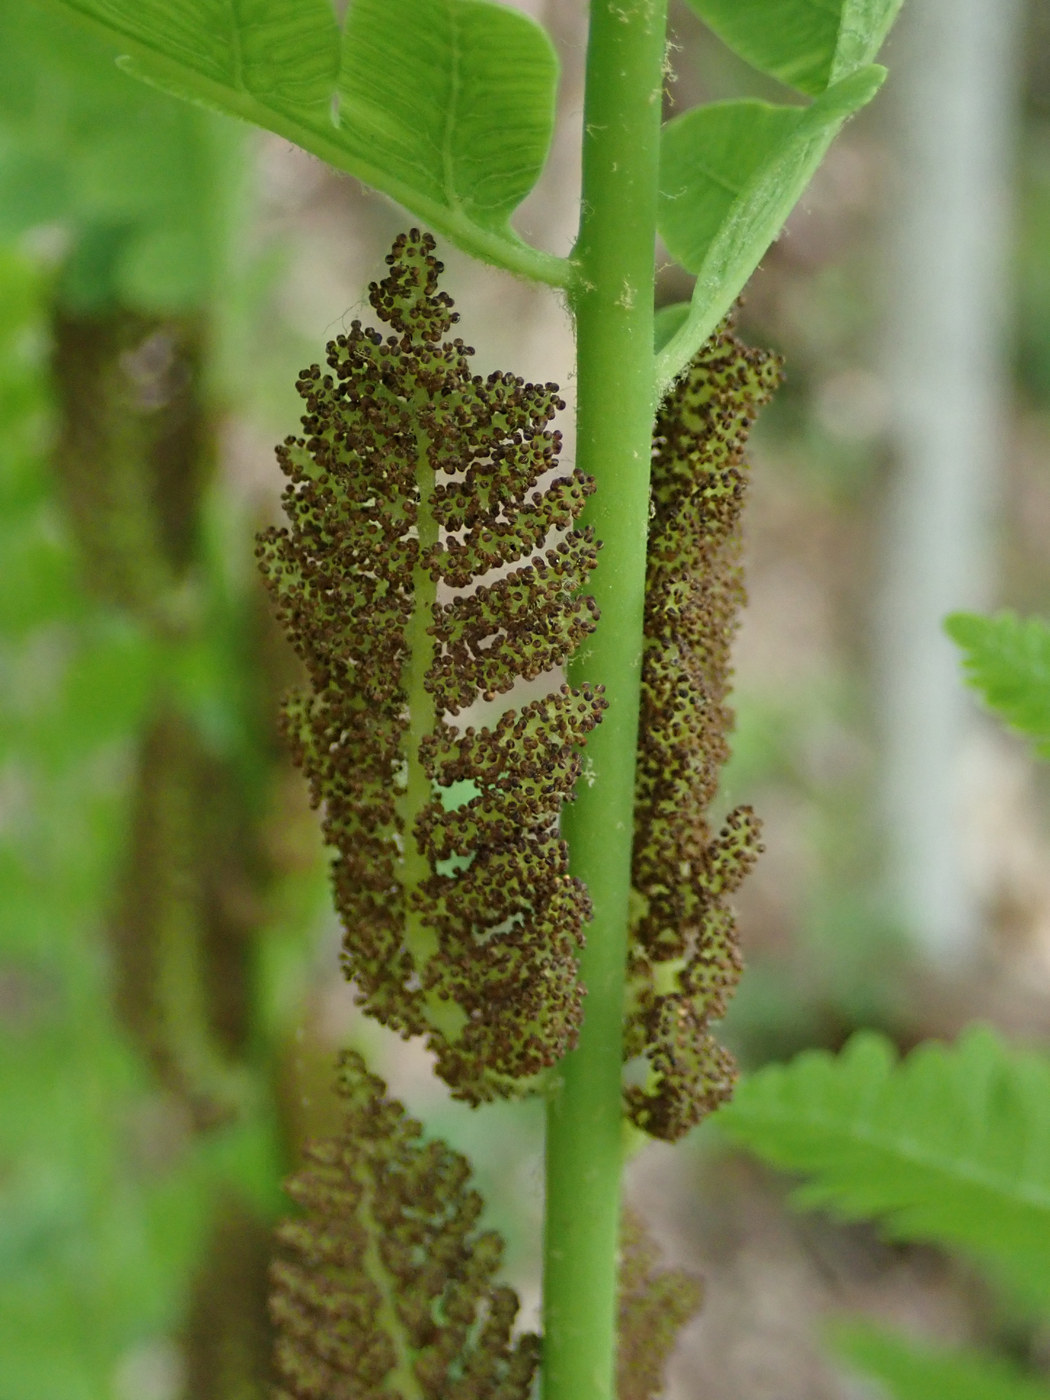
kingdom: Plantae
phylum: Tracheophyta
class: Polypodiopsida
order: Osmundales
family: Osmundaceae
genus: Claytosmunda
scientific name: Claytosmunda claytoniana
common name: Clayton's fern
